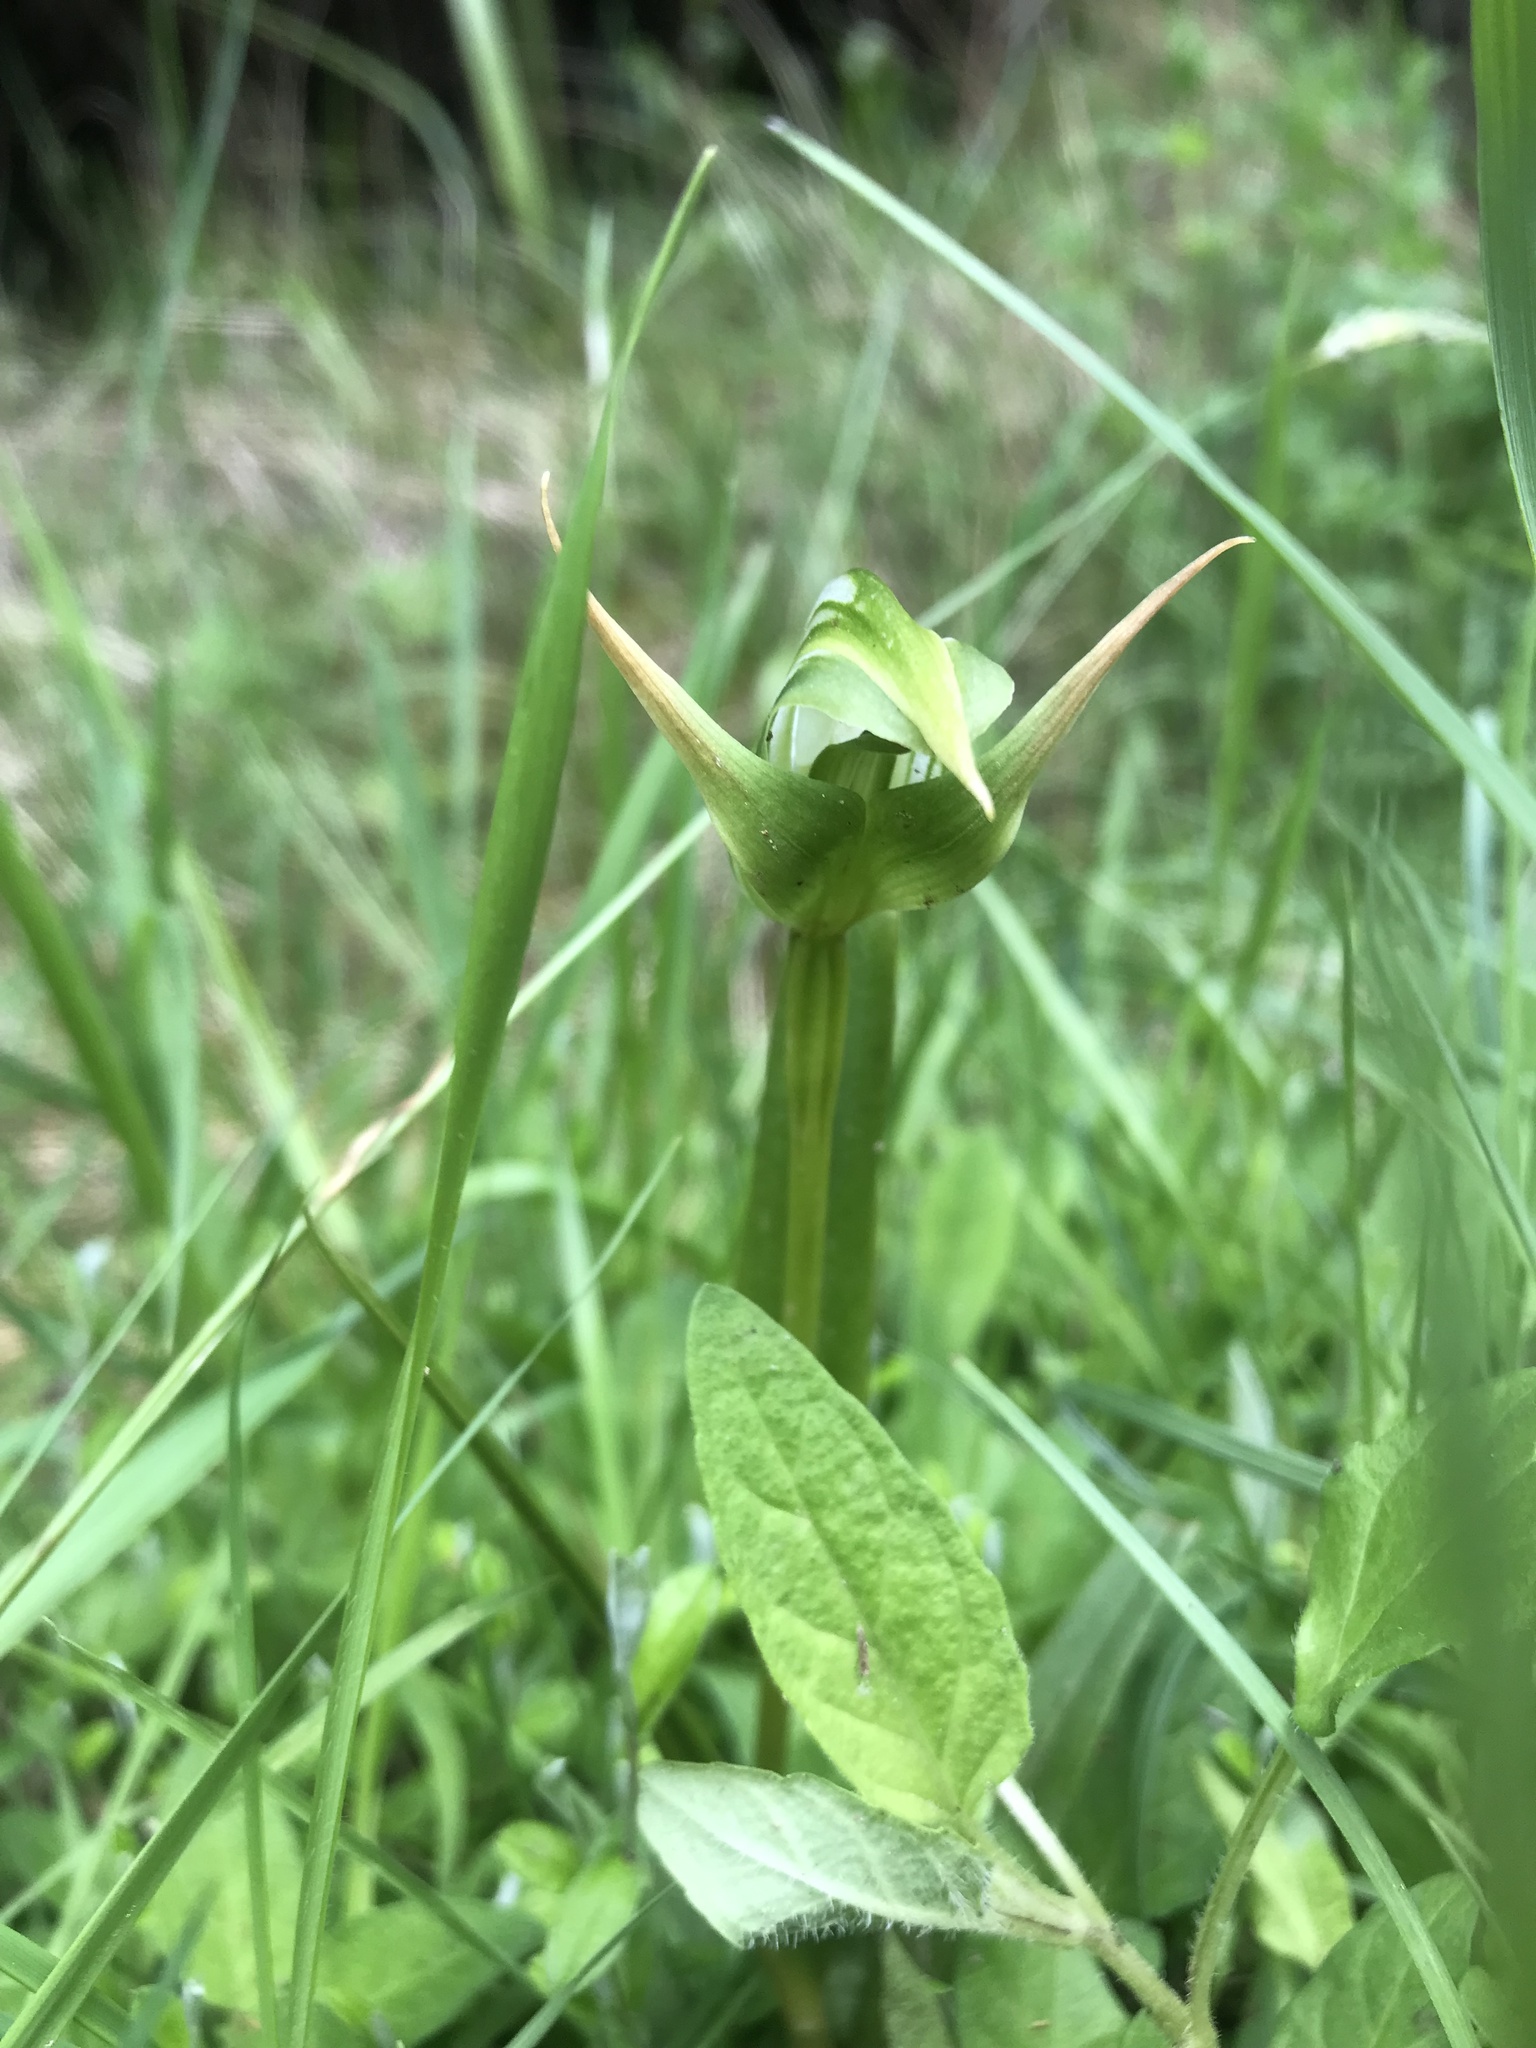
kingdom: Plantae
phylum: Tracheophyta
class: Liliopsida
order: Asparagales
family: Orchidaceae
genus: Pterostylis
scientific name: Pterostylis montana
